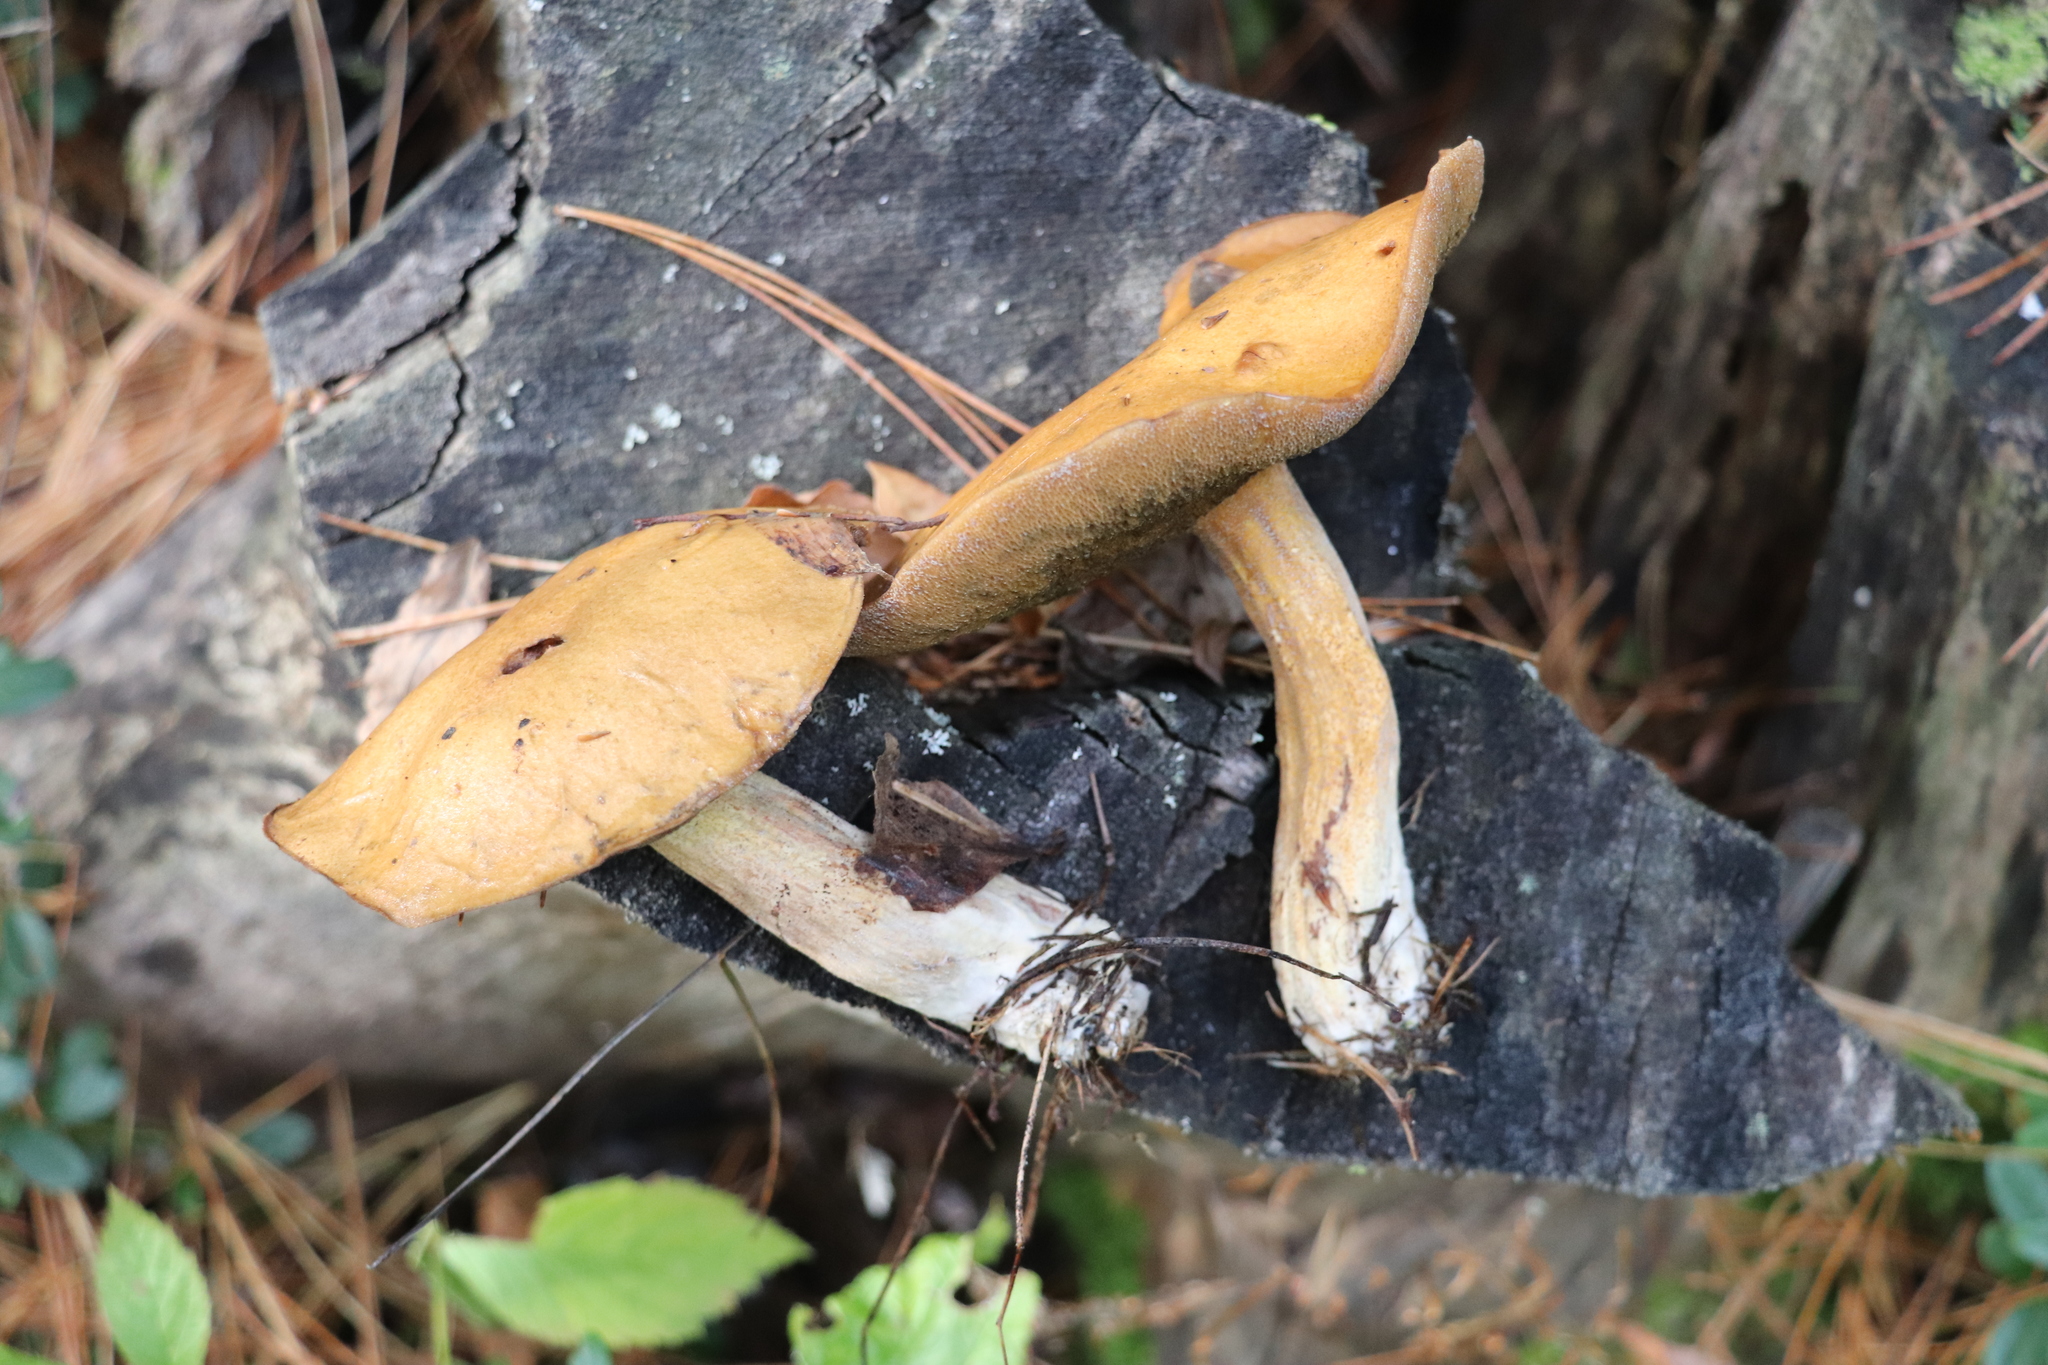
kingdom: Fungi
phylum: Basidiomycota
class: Agaricomycetes
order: Boletales
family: Suillaceae
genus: Suillus
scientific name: Suillus variegatus
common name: Velvet bolete
